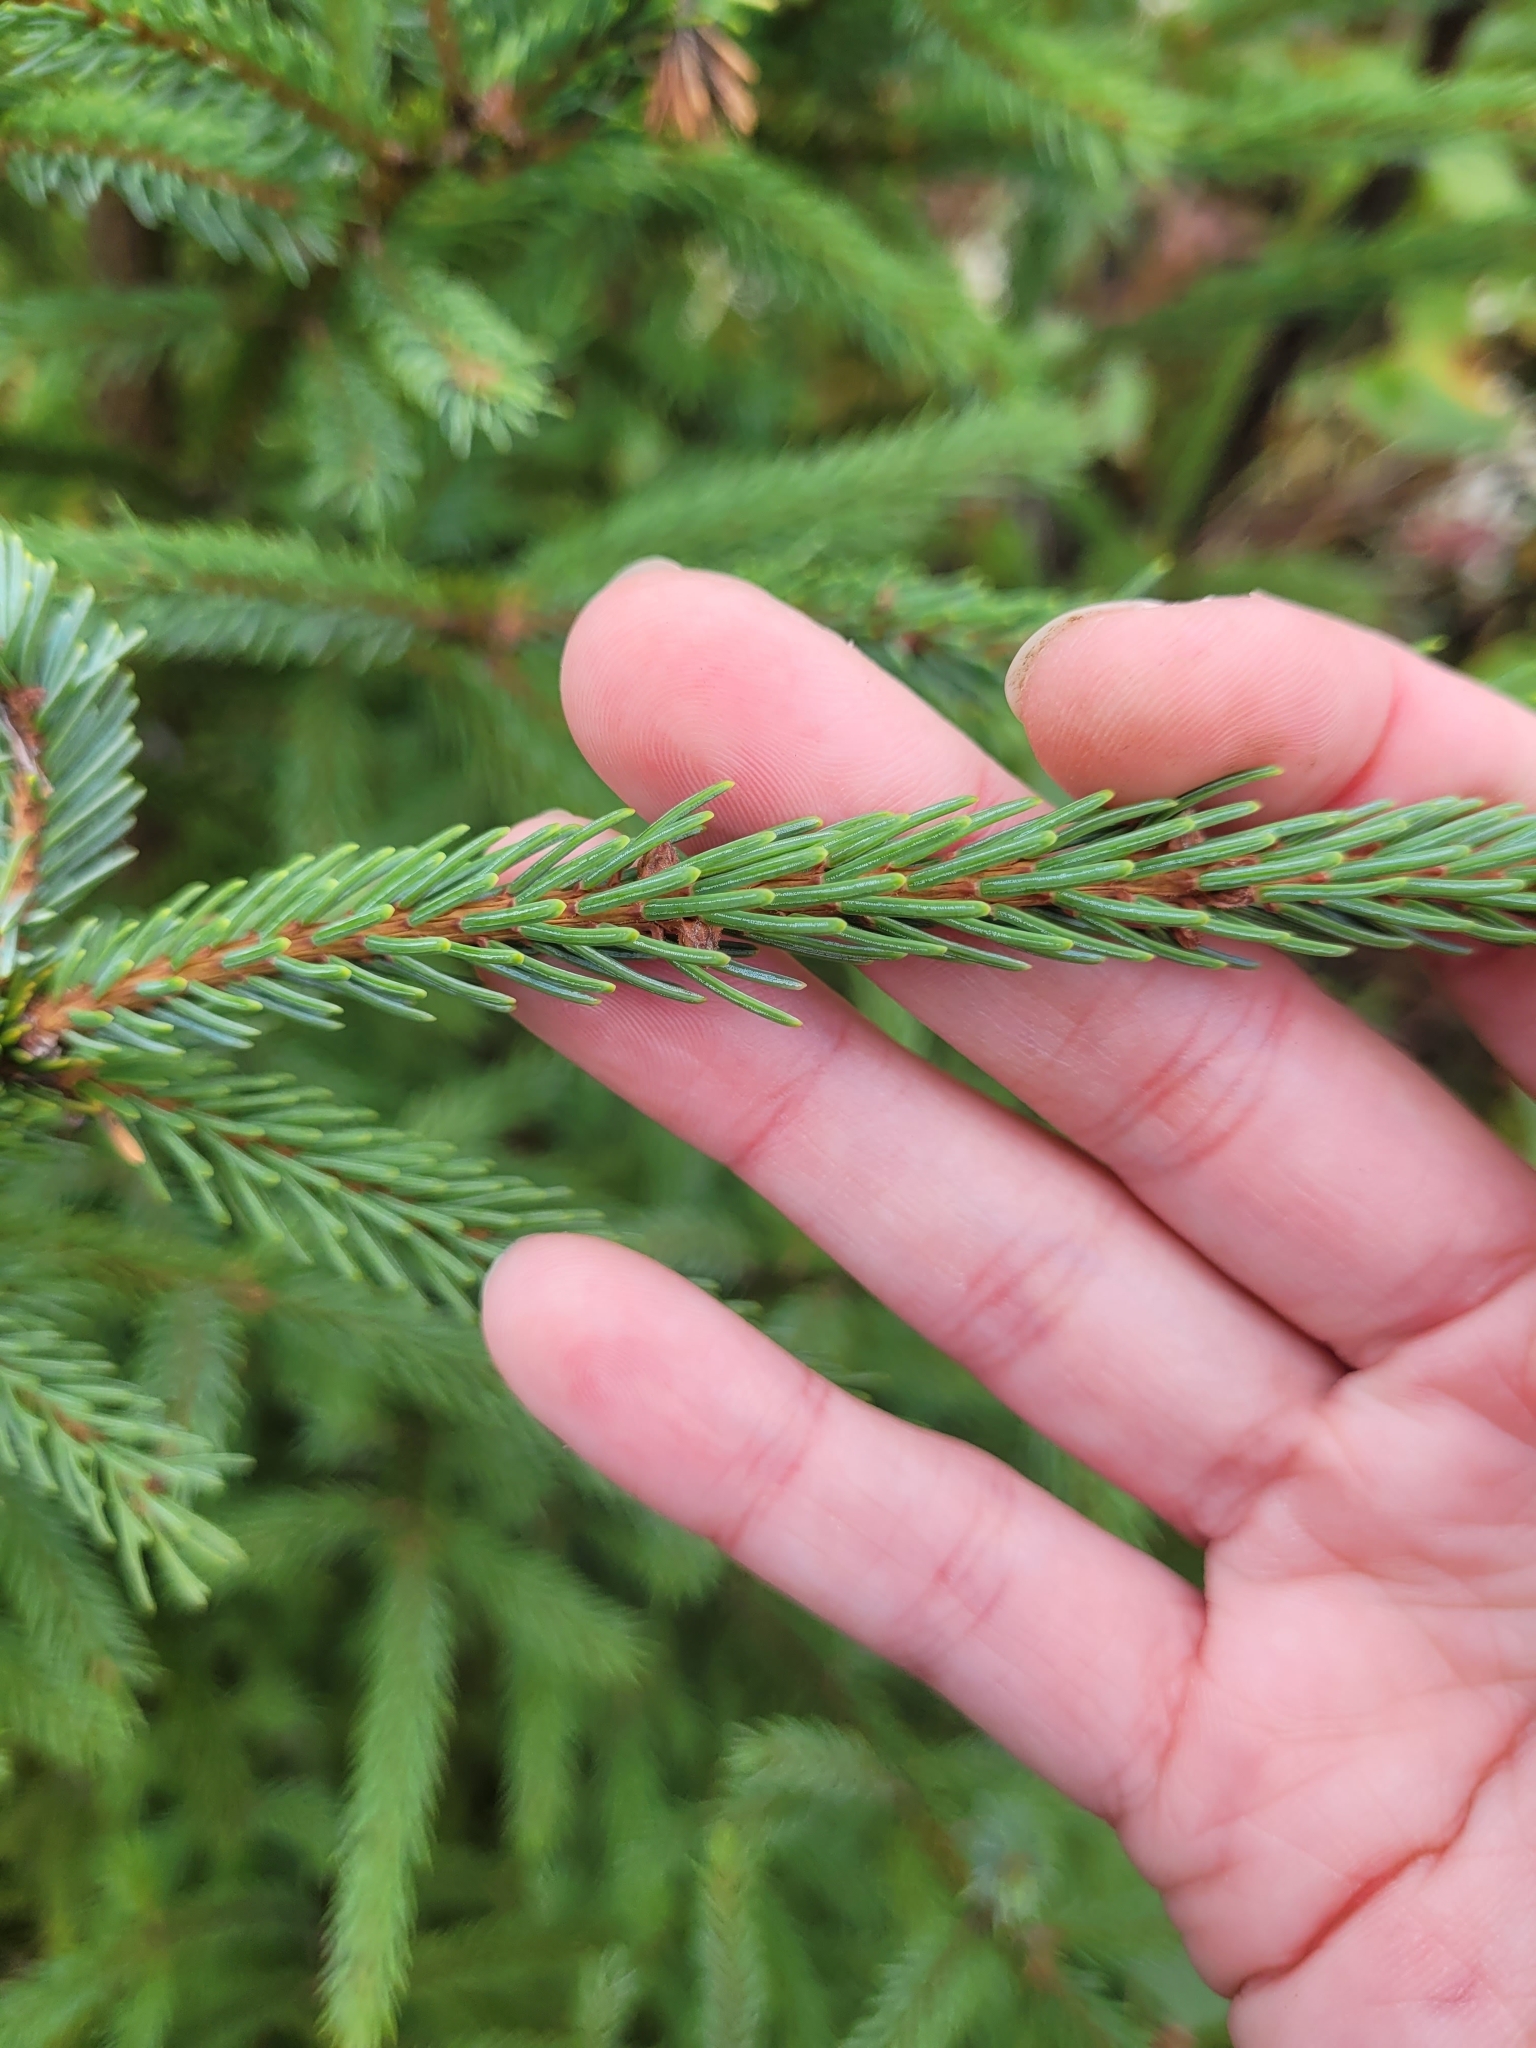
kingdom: Plantae
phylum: Tracheophyta
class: Pinopsida
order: Pinales
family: Pinaceae
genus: Picea
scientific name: Picea mariana
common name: Black spruce
